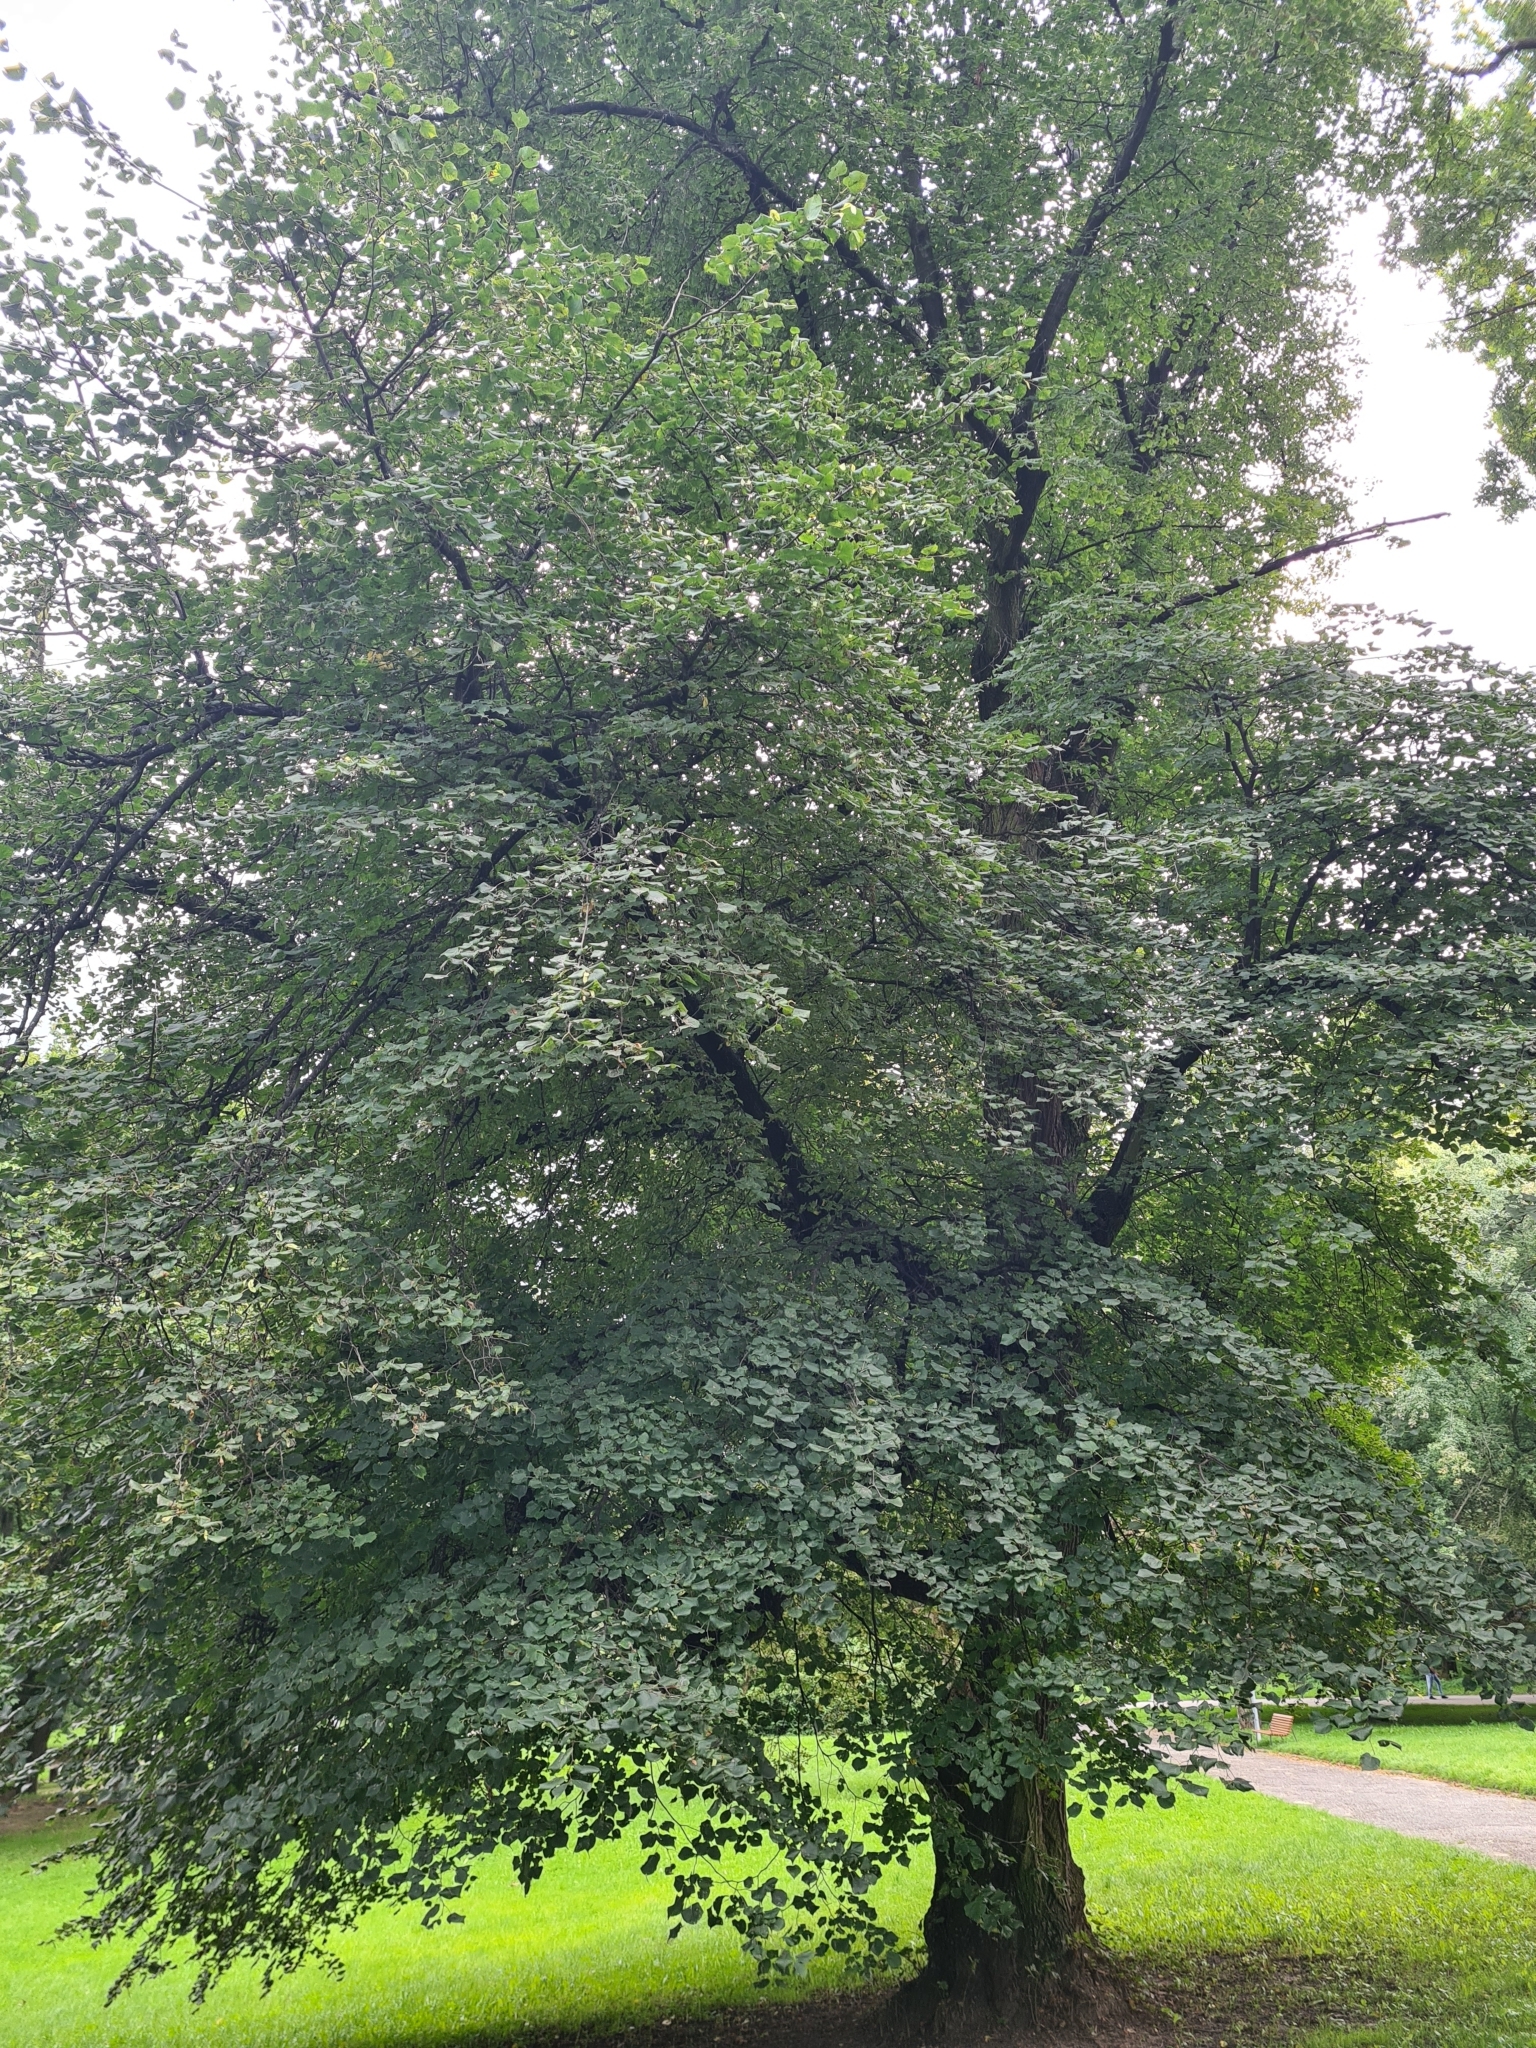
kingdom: Plantae
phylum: Tracheophyta
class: Magnoliopsida
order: Malvales
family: Malvaceae
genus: Tilia
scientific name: Tilia cordata
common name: Small-leaved lime
